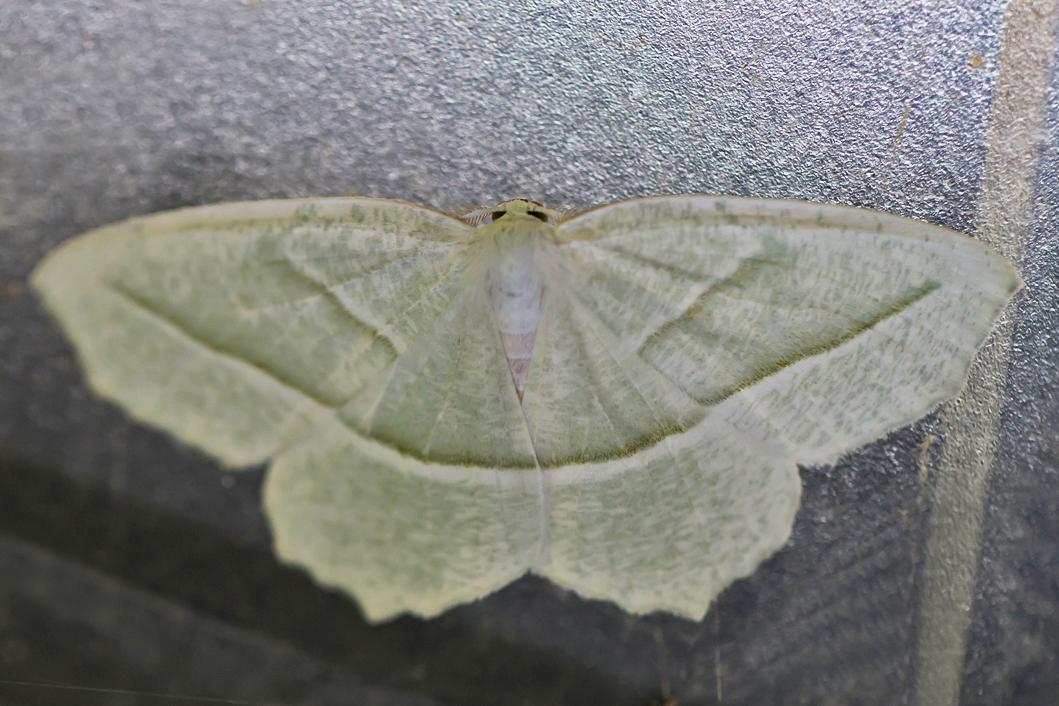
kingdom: Animalia
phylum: Arthropoda
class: Insecta
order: Lepidoptera
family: Geometridae
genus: Campaea
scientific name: Campaea perlata
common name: Fringed looper
